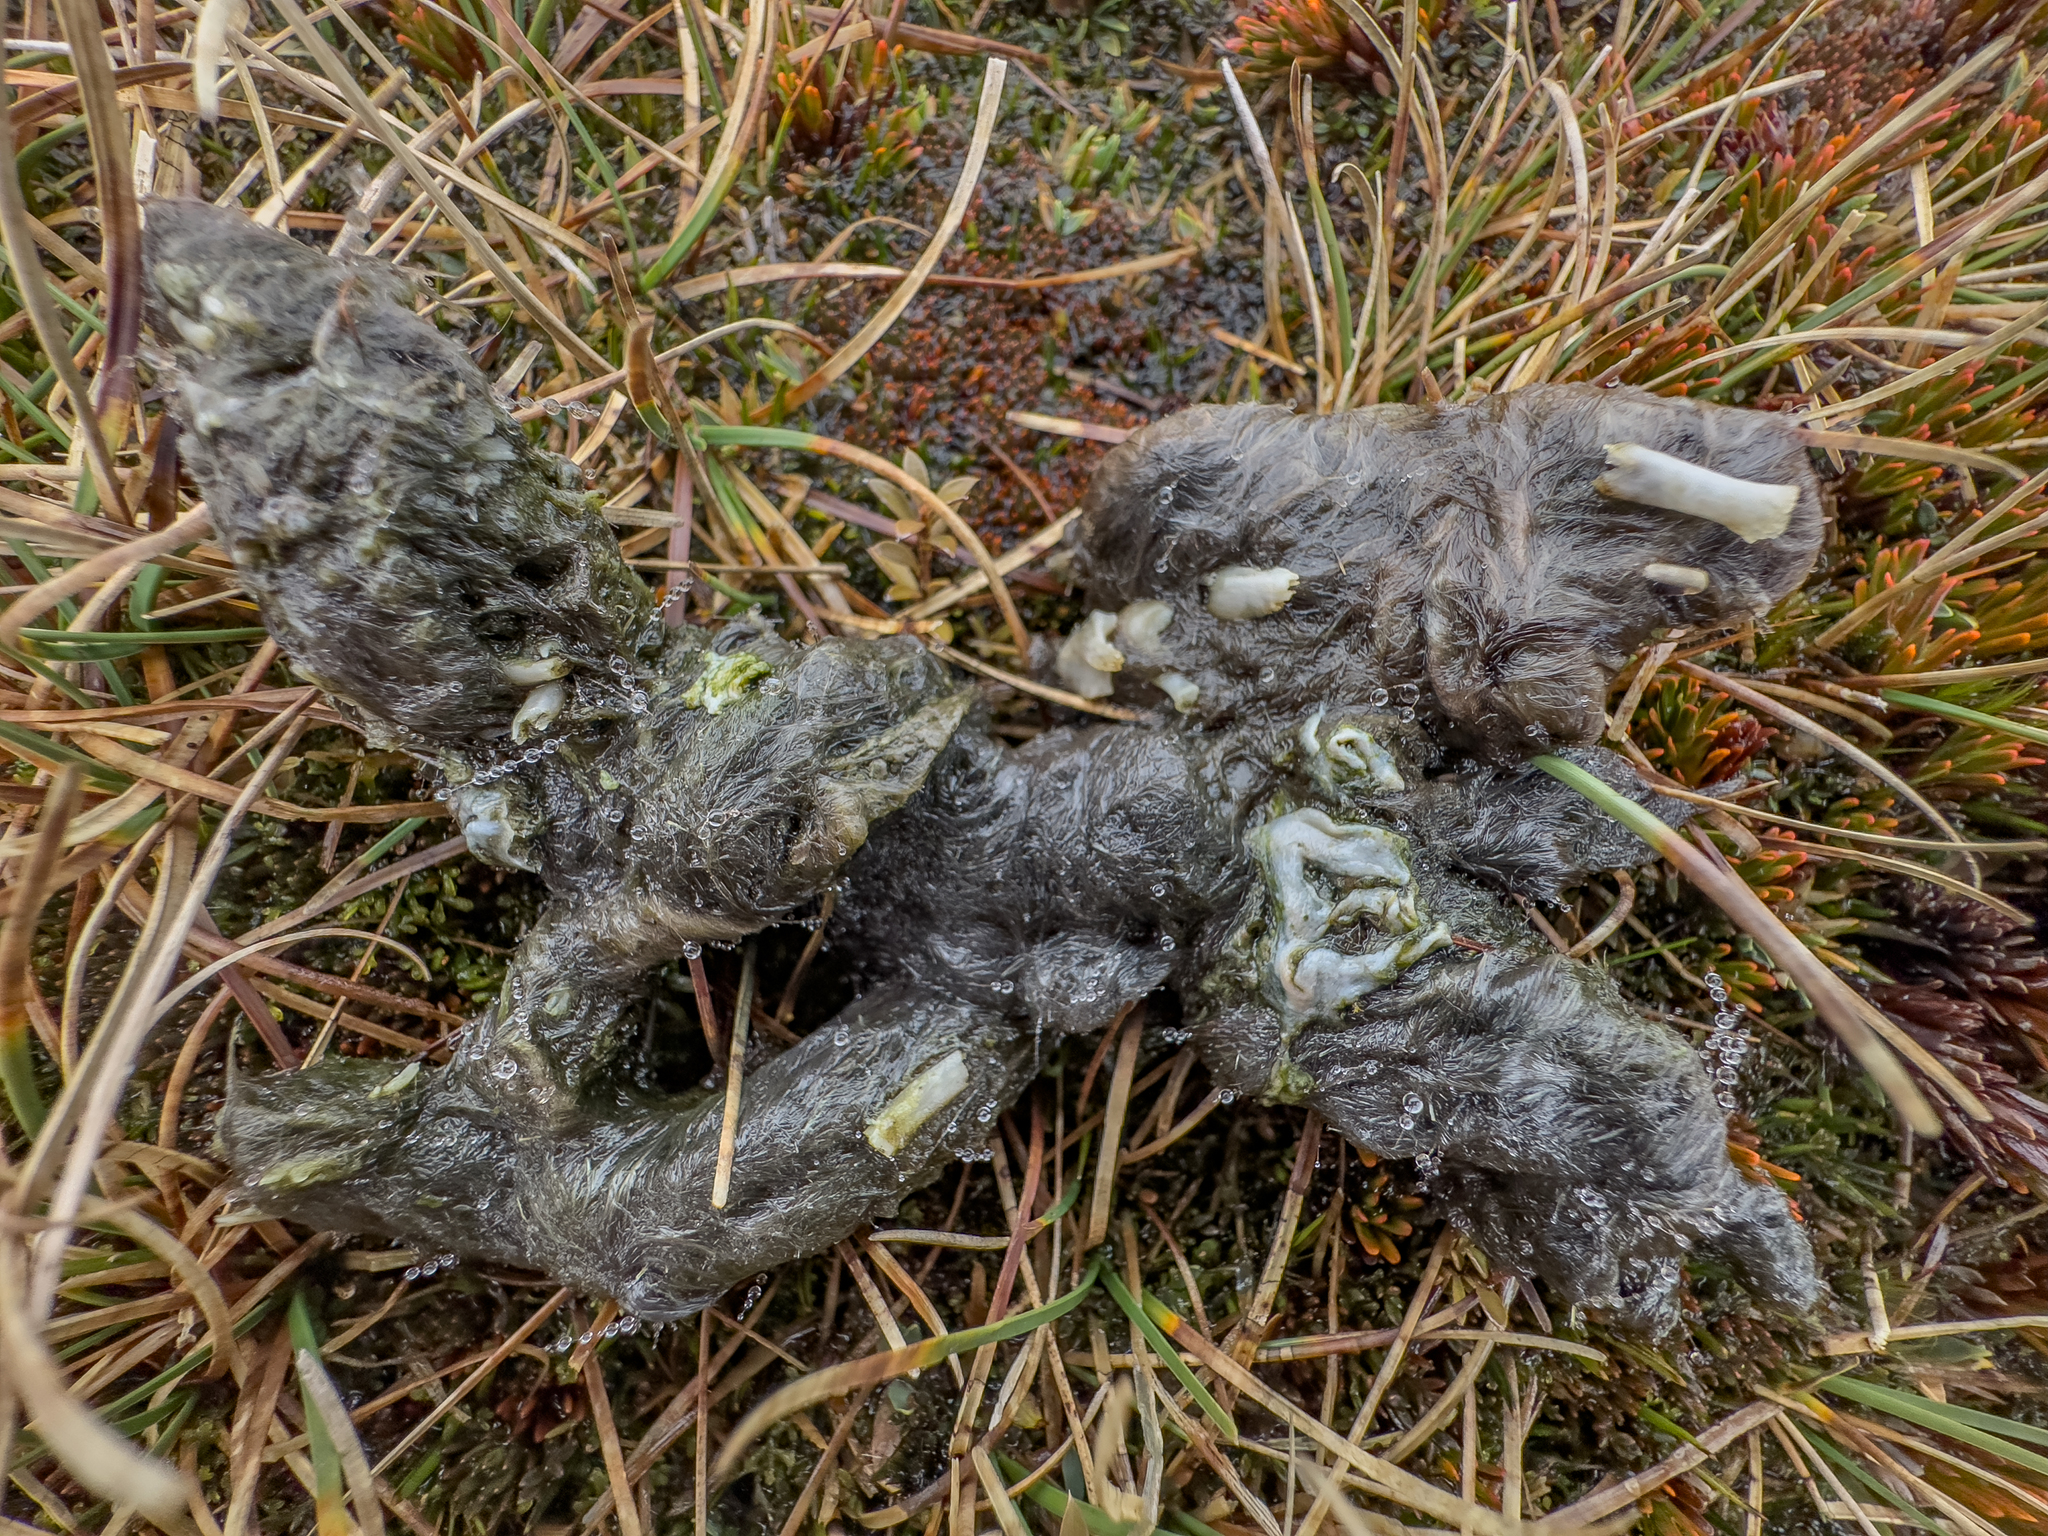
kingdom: Animalia
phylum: Chordata
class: Mammalia
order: Carnivora
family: Felidae
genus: Felis
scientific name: Felis catus
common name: Domestic cat
